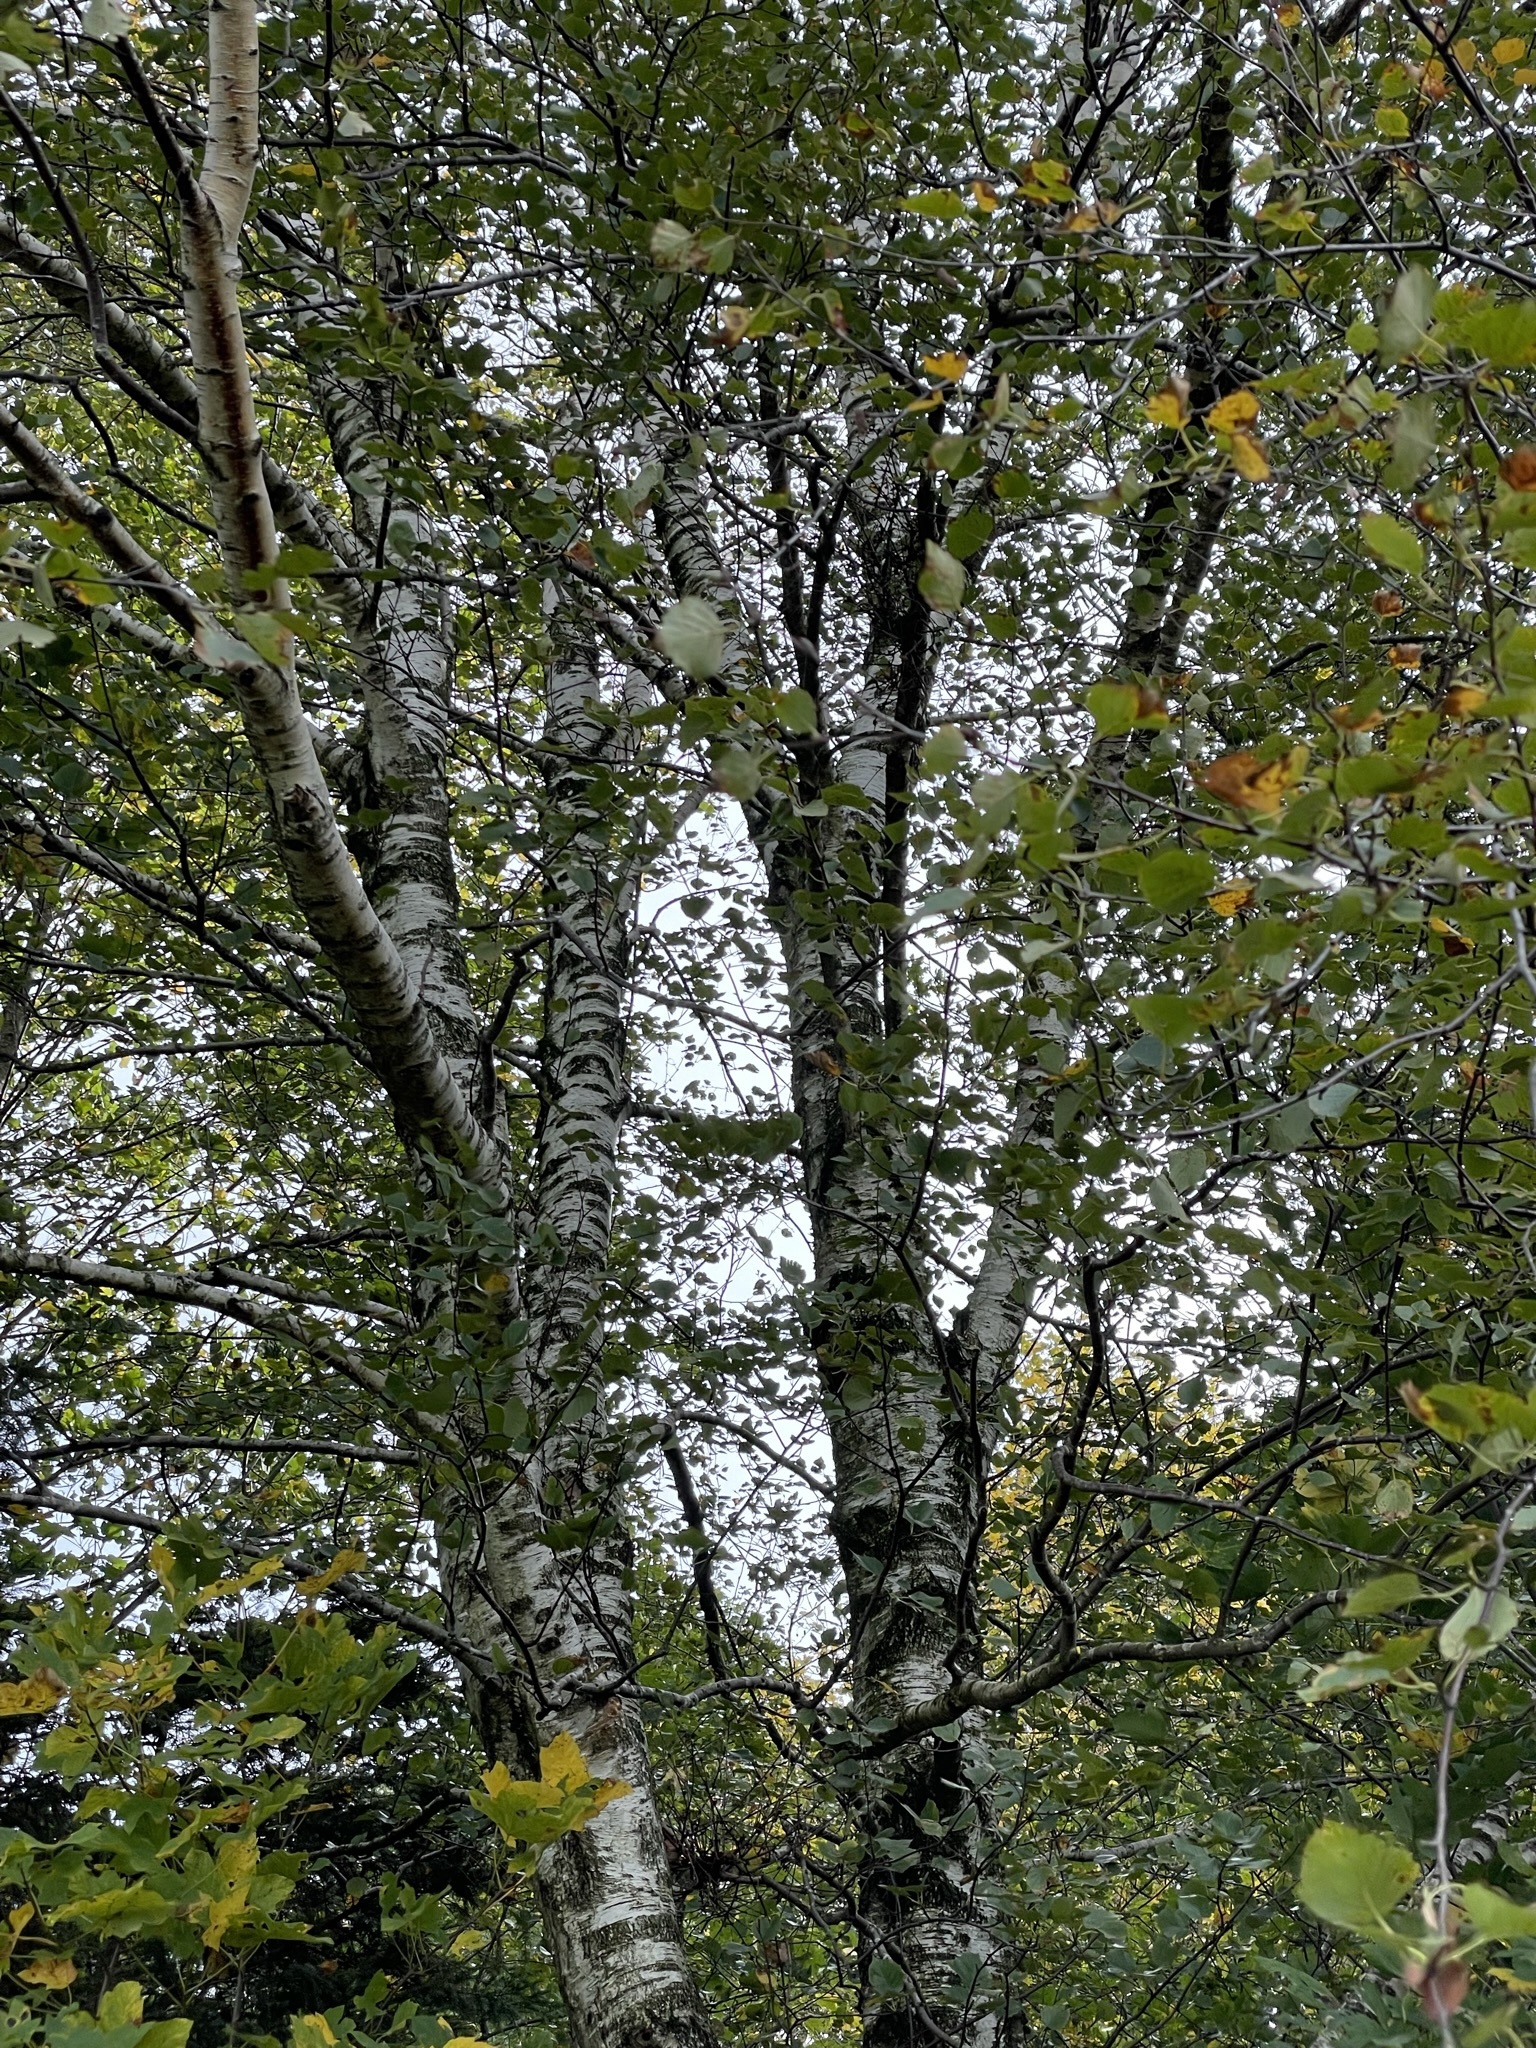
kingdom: Plantae
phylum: Tracheophyta
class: Magnoliopsida
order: Fagales
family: Betulaceae
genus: Betula
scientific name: Betula pendula
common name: Silver birch
